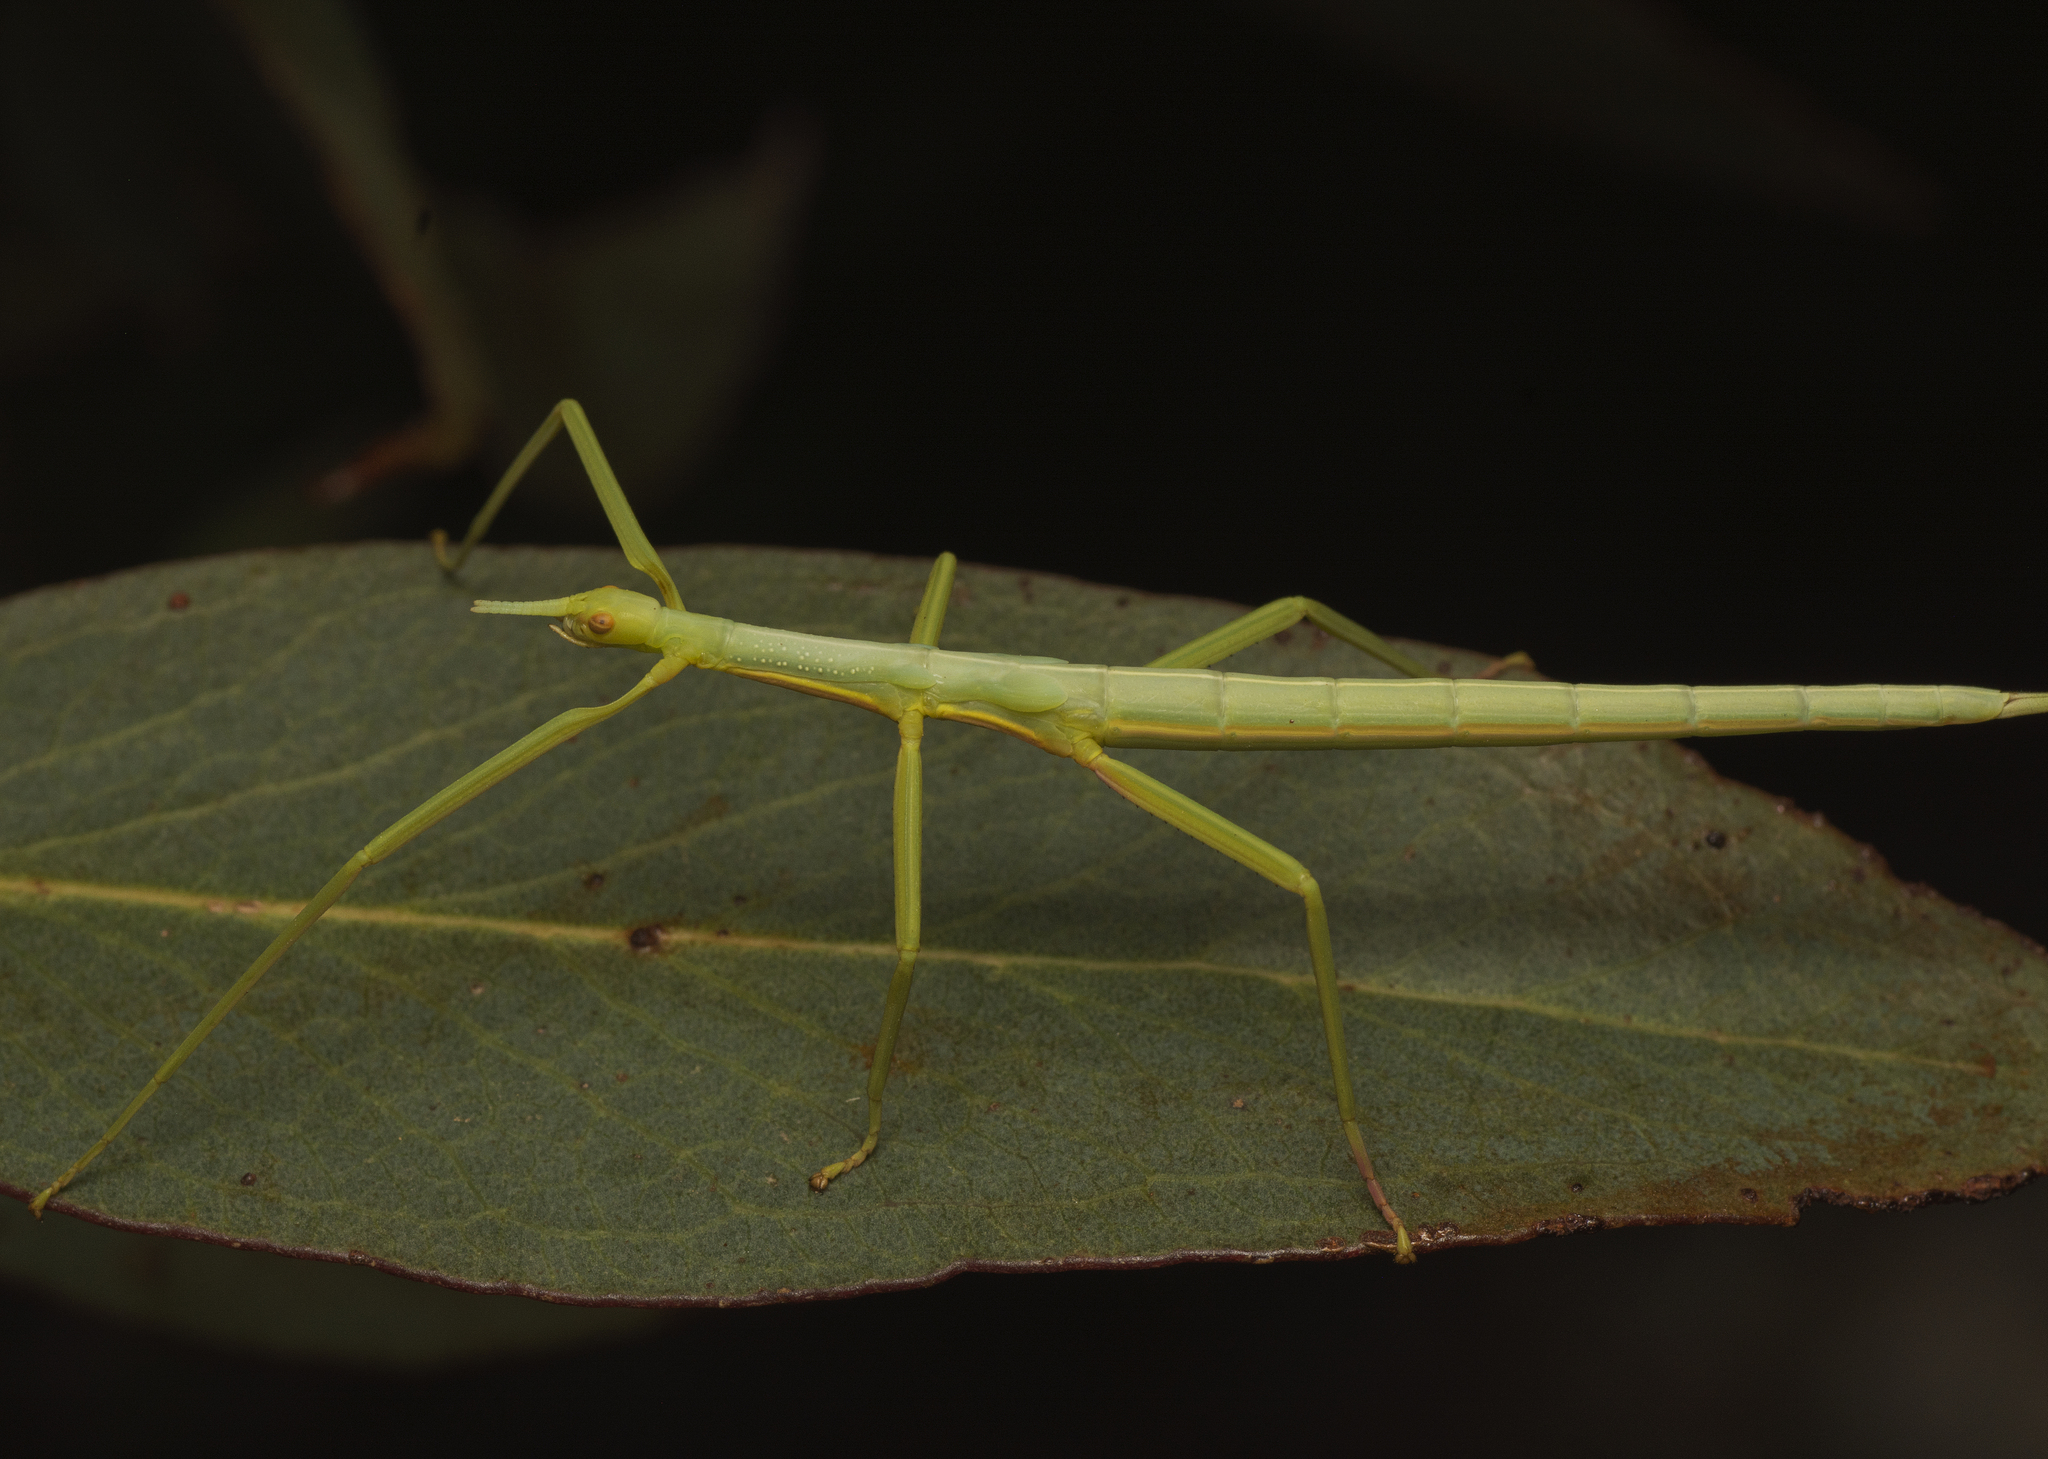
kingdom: Animalia
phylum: Arthropoda
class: Insecta
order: Phasmida
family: Phasmatidae
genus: Didymuria
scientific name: Didymuria violescens
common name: Spur-legged stick-insect
